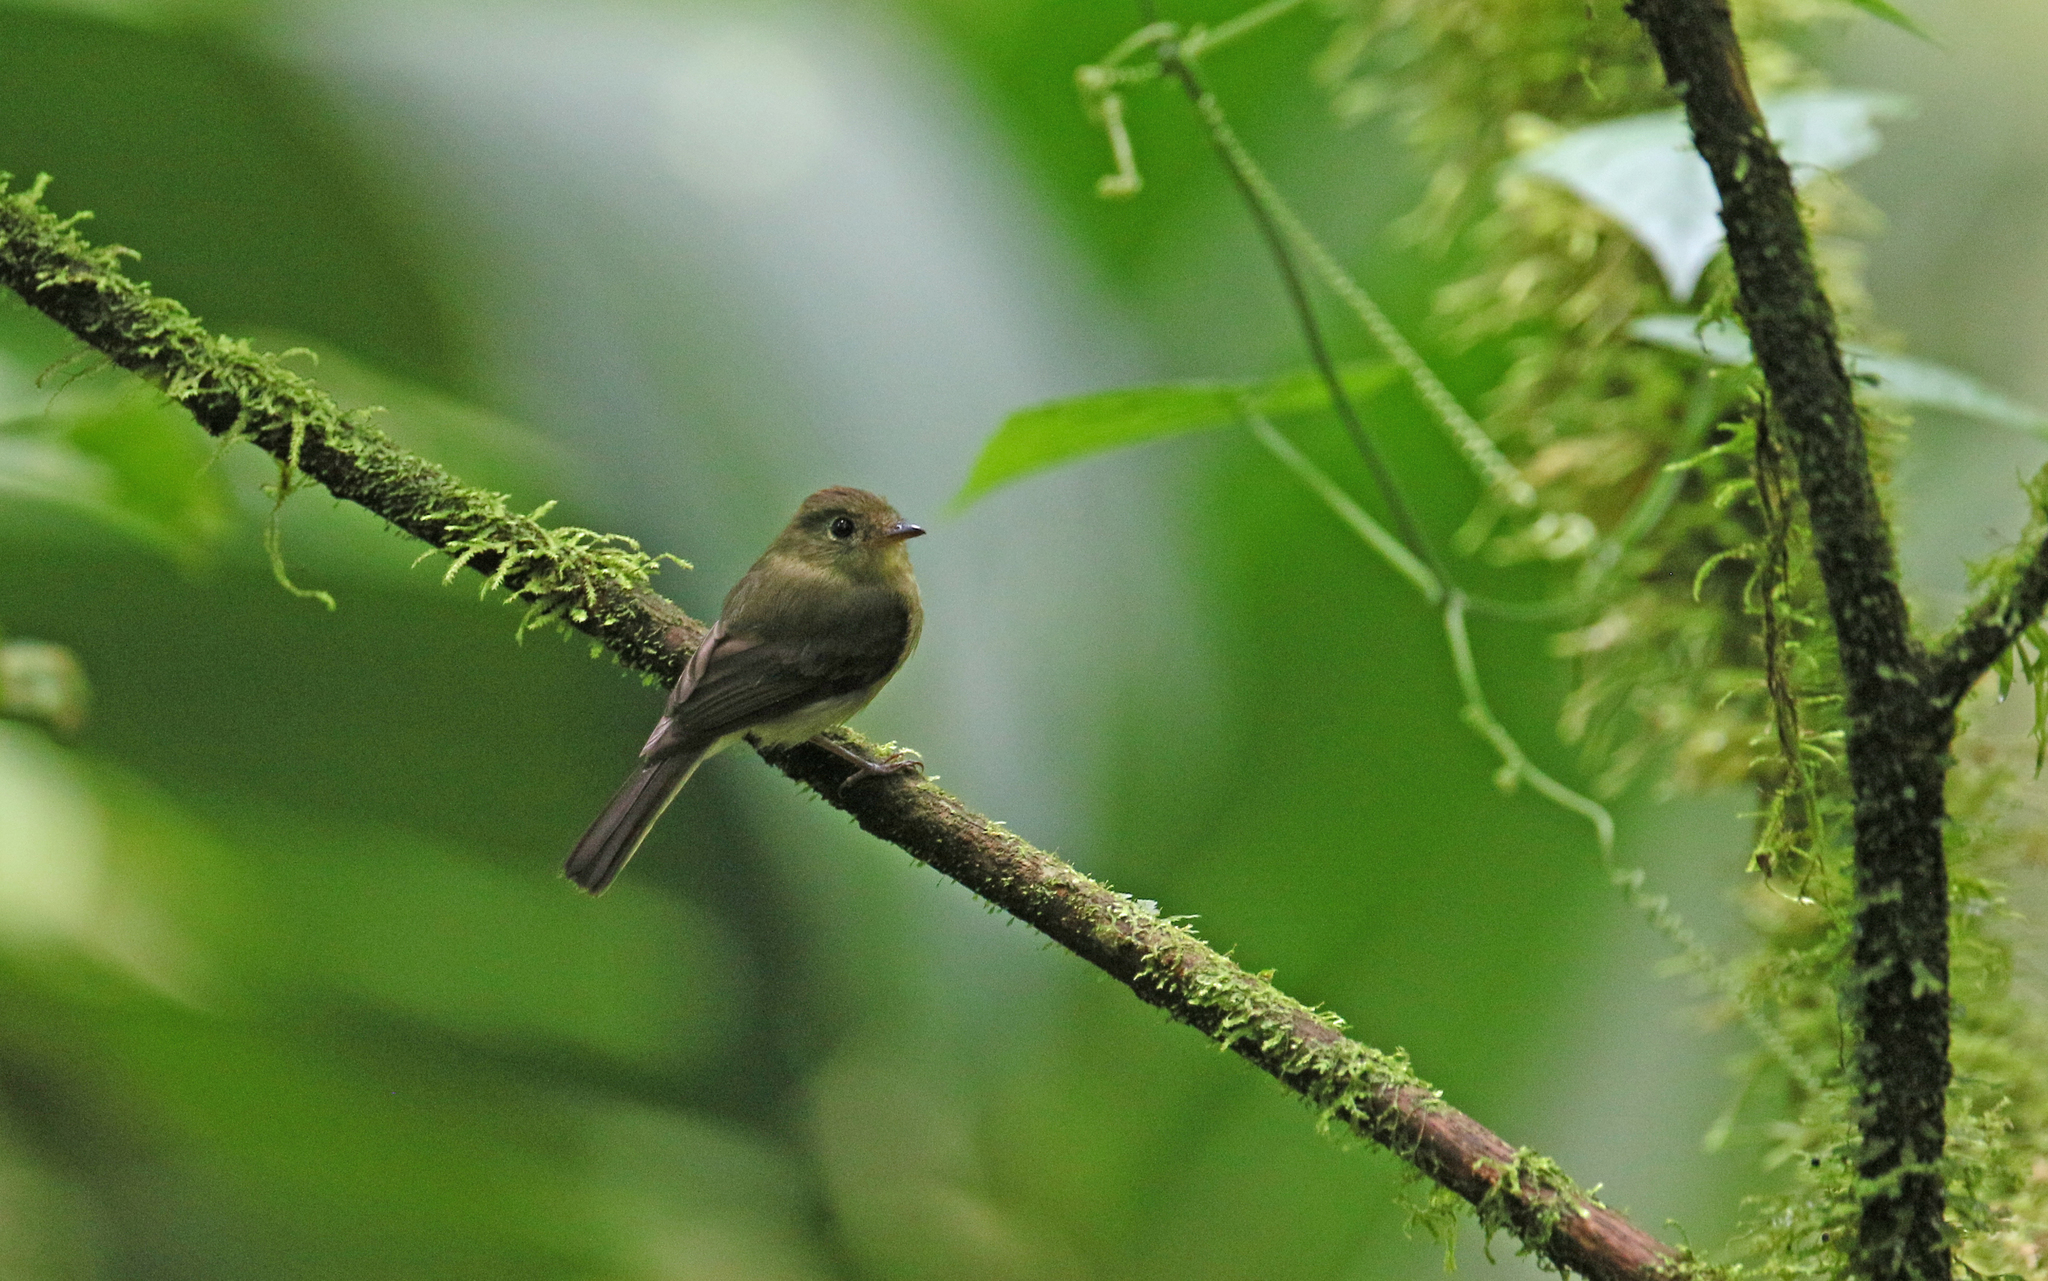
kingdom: Animalia
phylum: Chordata
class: Aves
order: Passeriformes
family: Tyrannidae
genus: Myiophobus
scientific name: Myiophobus phoenicomitra
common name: Orange-crested flycatcher
